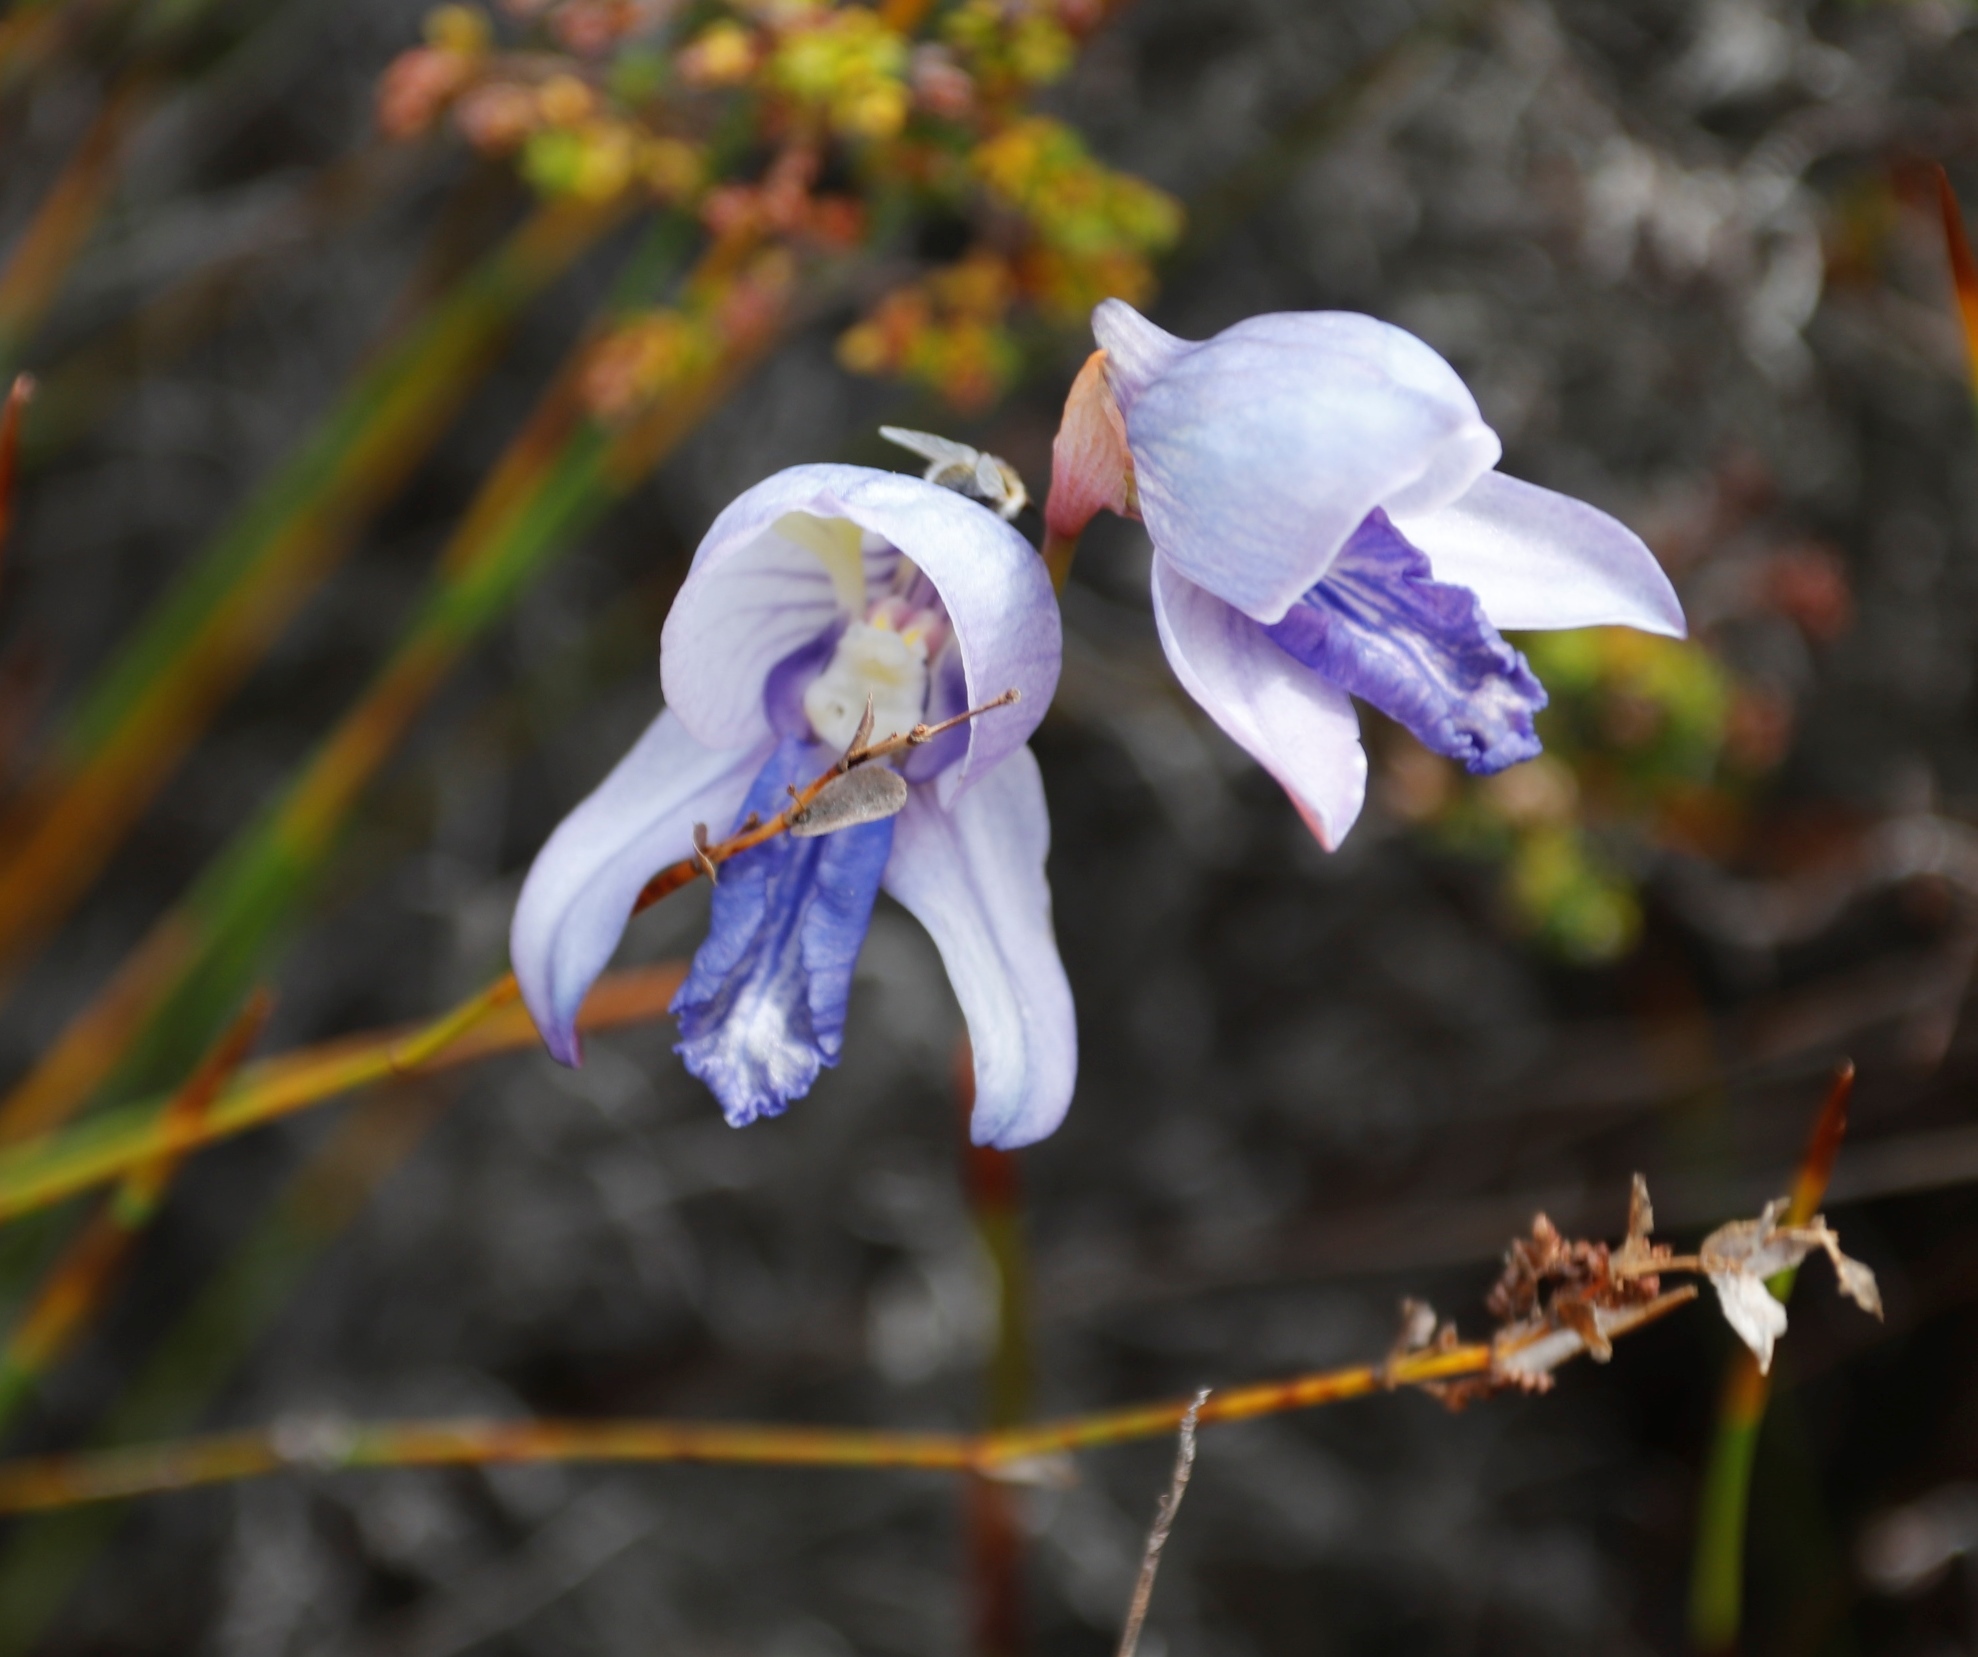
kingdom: Plantae
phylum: Tracheophyta
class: Liliopsida
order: Asparagales
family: Orchidaceae
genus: Disa
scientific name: Disa purpurascens
